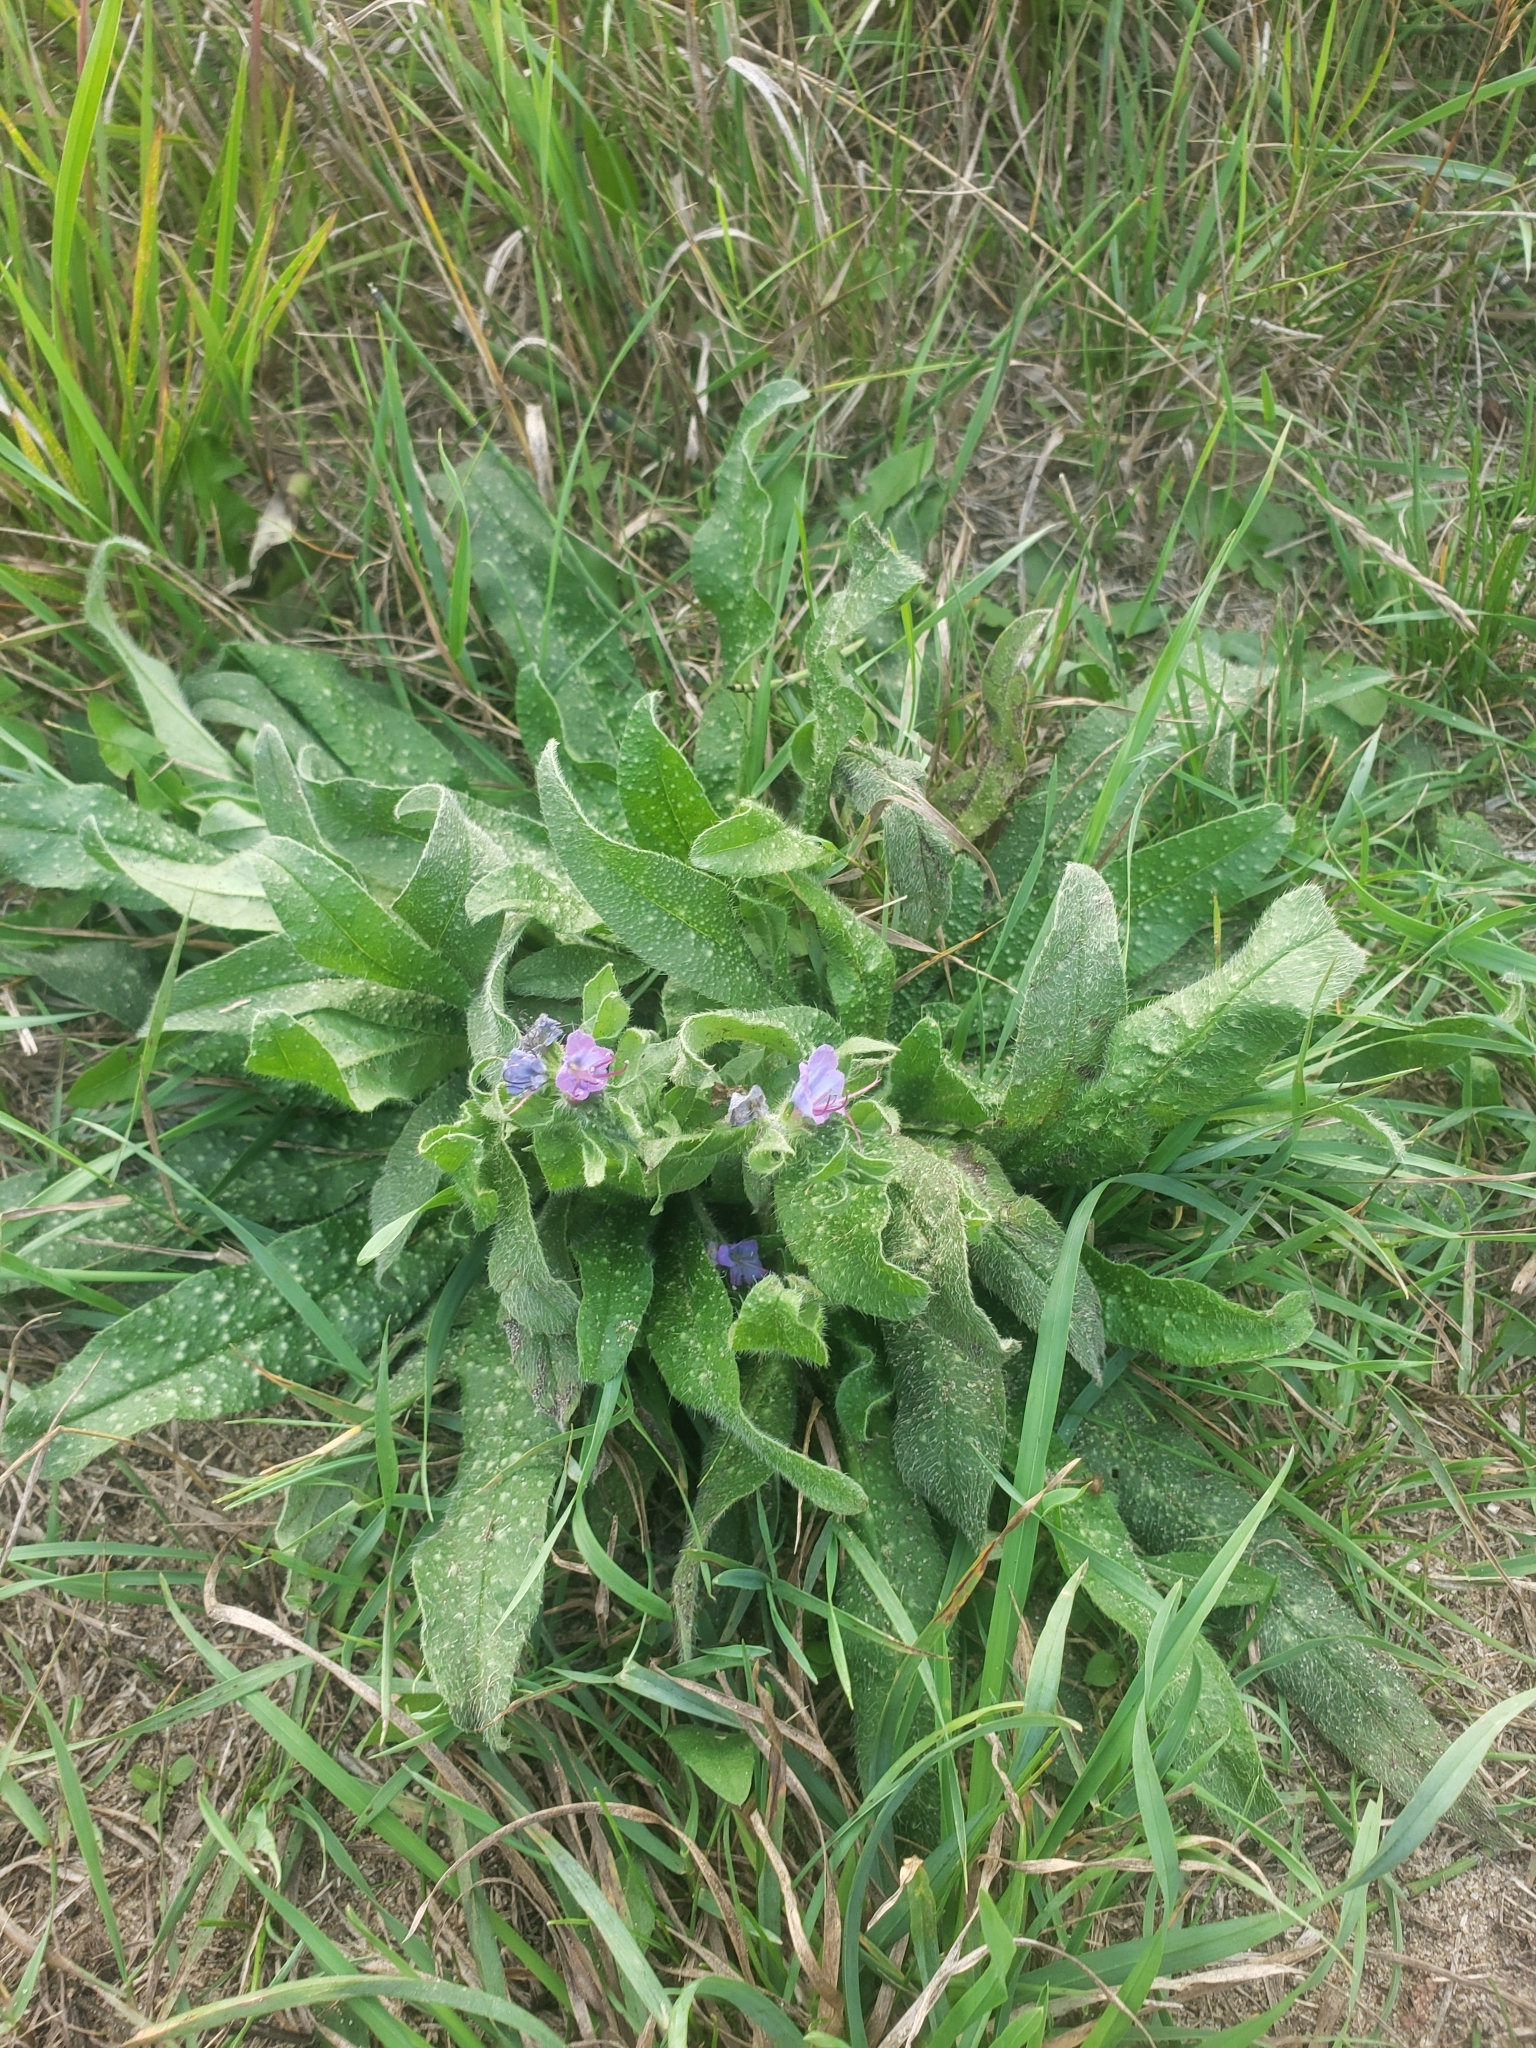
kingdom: Plantae
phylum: Tracheophyta
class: Magnoliopsida
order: Boraginales
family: Boraginaceae
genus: Echium
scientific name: Echium vulgare
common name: Common viper's bugloss
